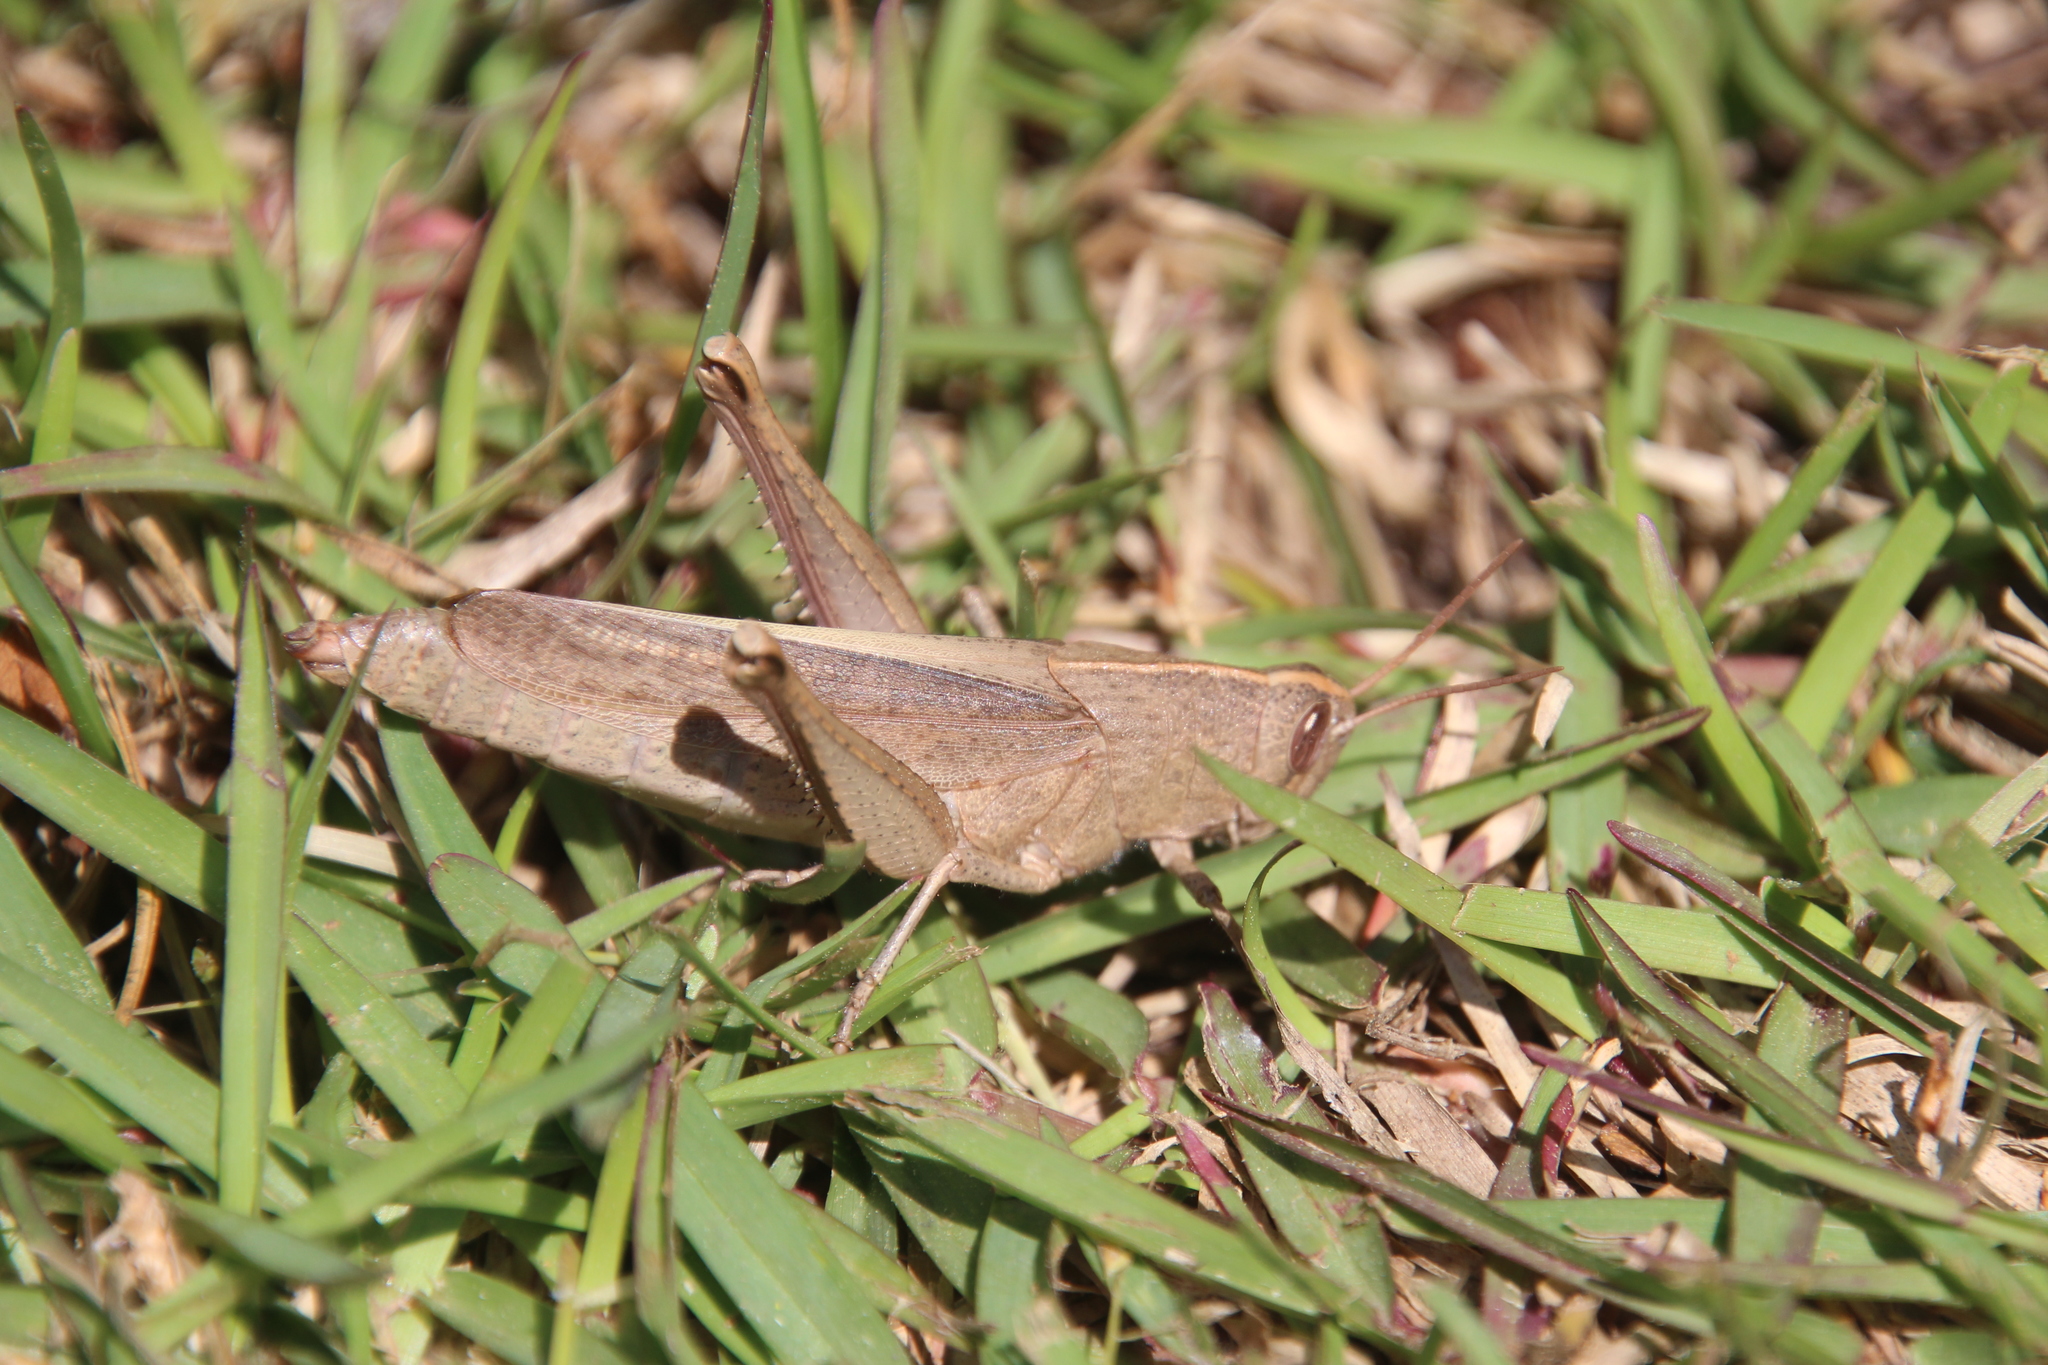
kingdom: Animalia
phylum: Arthropoda
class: Insecta
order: Orthoptera
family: Acrididae
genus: Schistocerca
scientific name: Schistocerca damnifica
